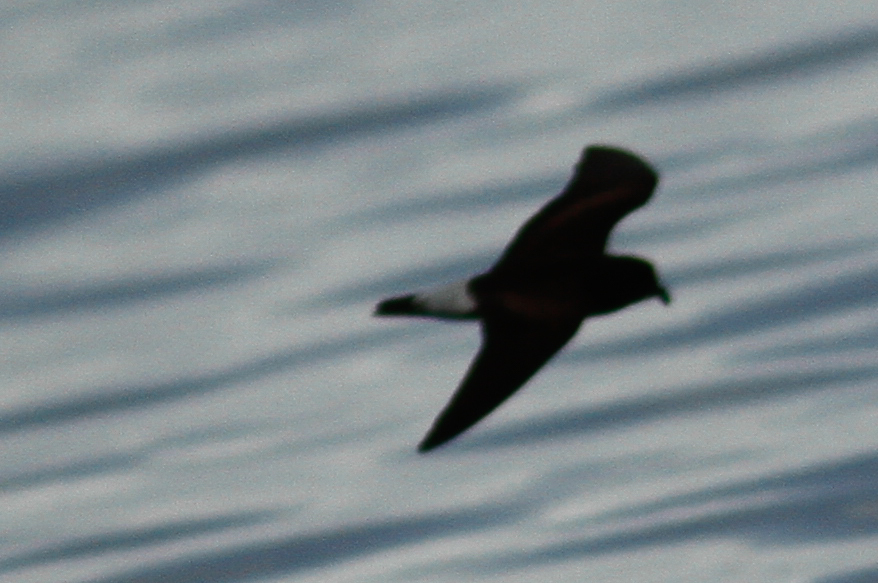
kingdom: Animalia
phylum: Chordata
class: Aves
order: Procellariiformes
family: Hydrobatidae
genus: Oceanodroma
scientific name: Oceanodroma tethys
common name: Wedge-rumped storm-petrel
